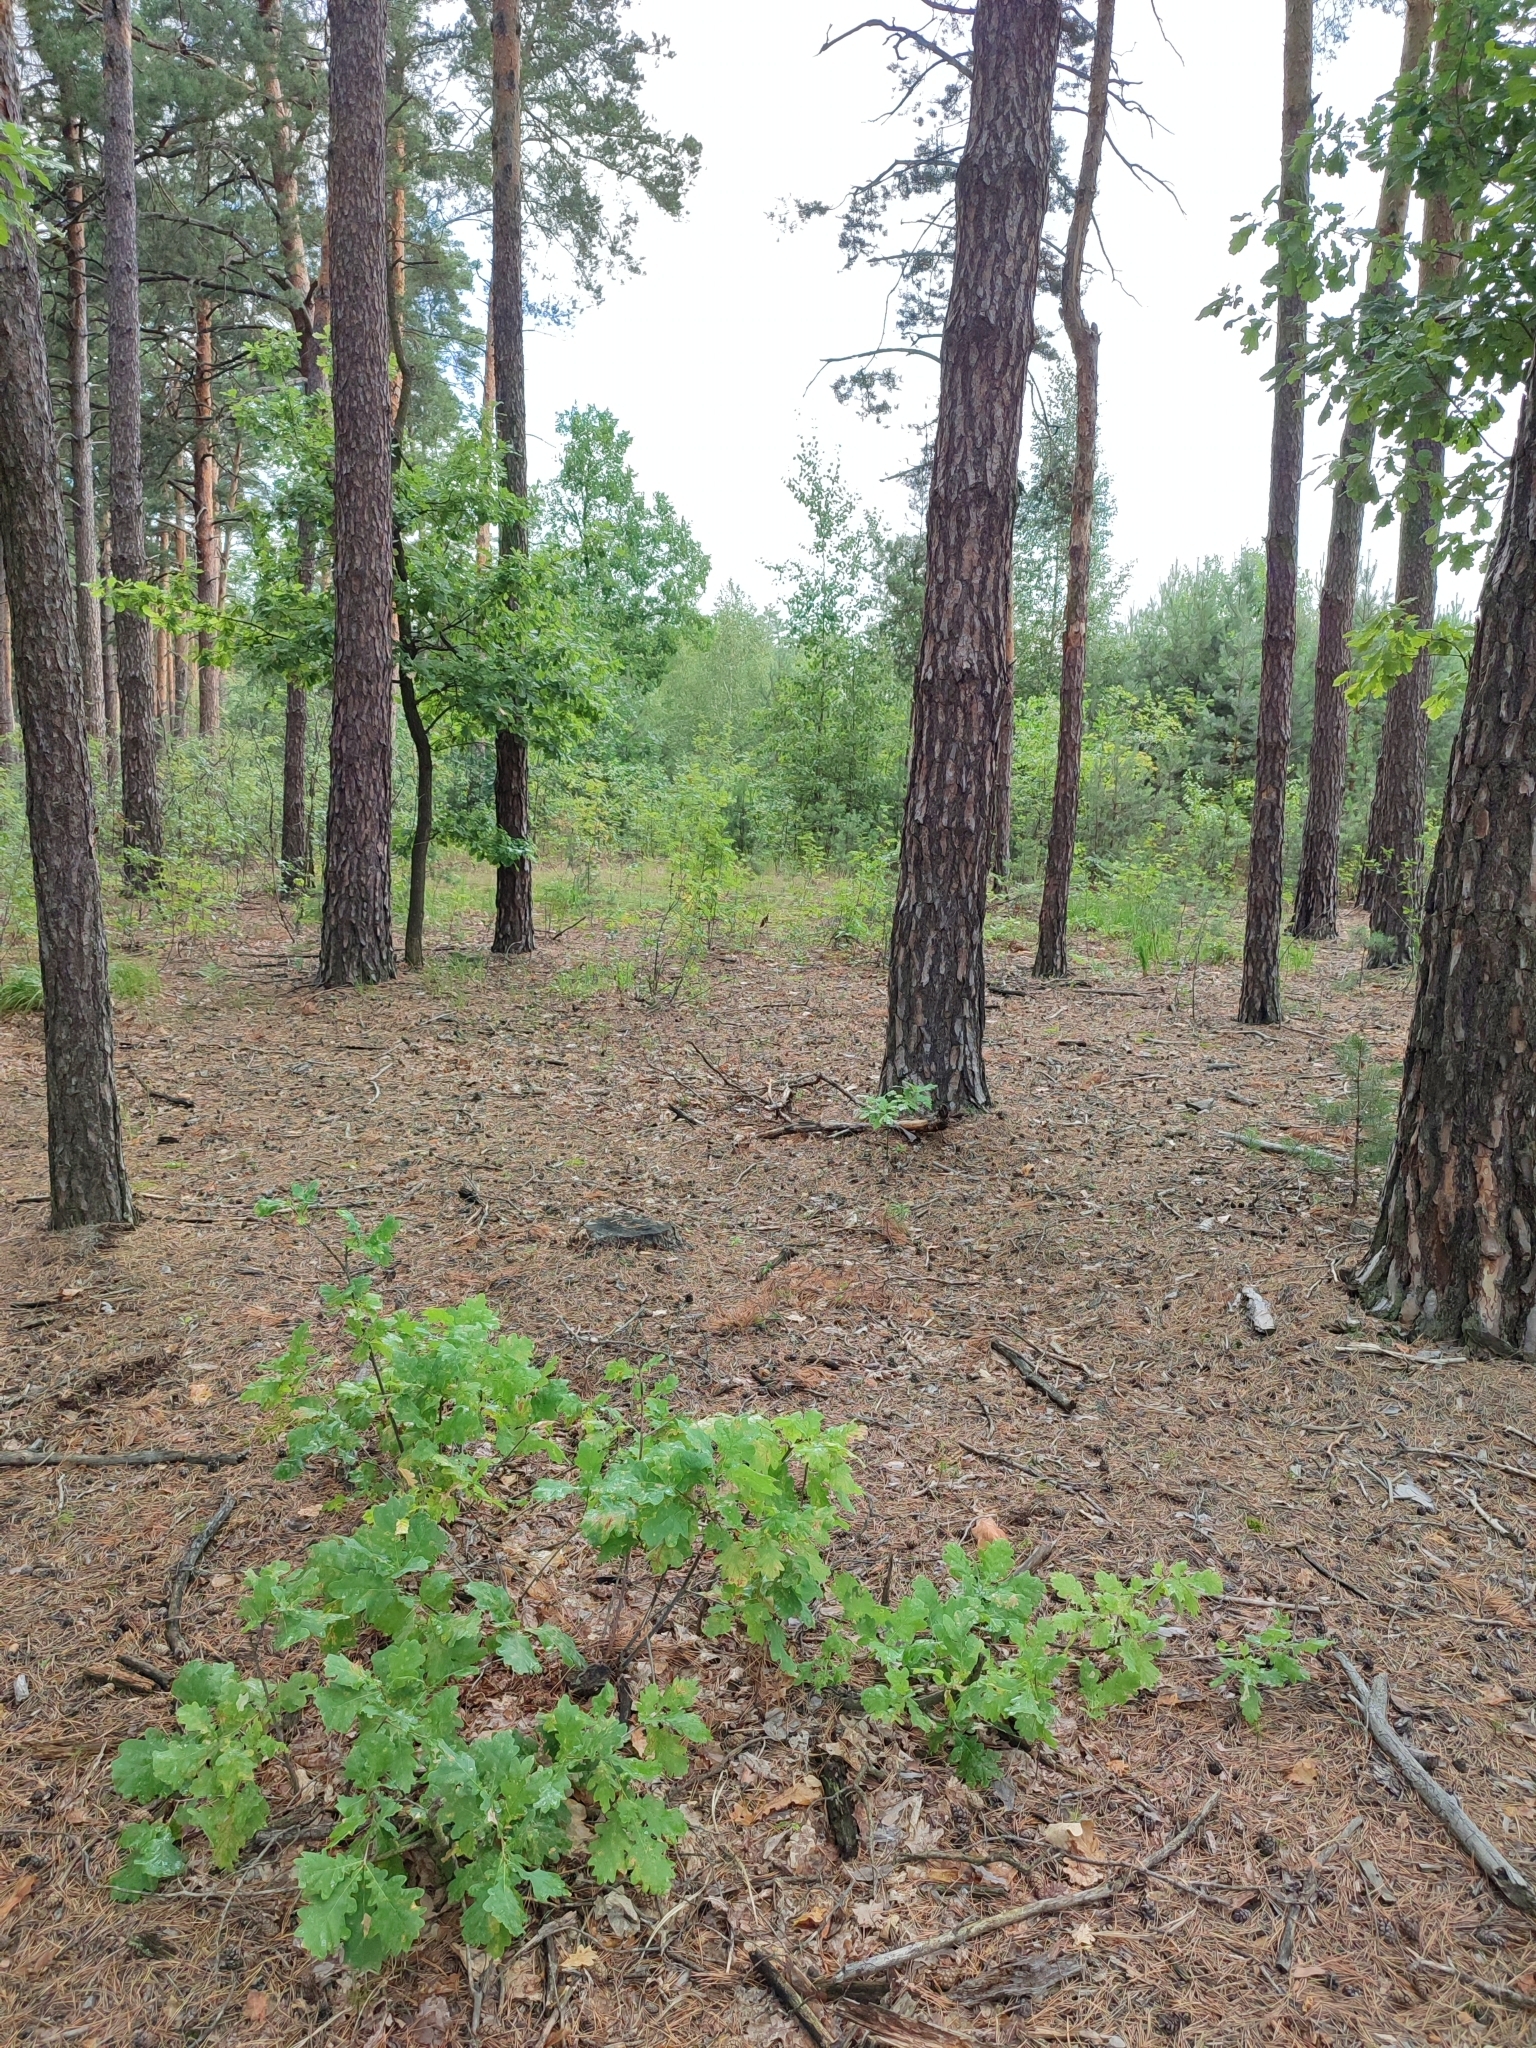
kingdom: Plantae
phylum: Tracheophyta
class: Magnoliopsida
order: Fagales
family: Fagaceae
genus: Quercus
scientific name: Quercus robur
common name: Pedunculate oak
